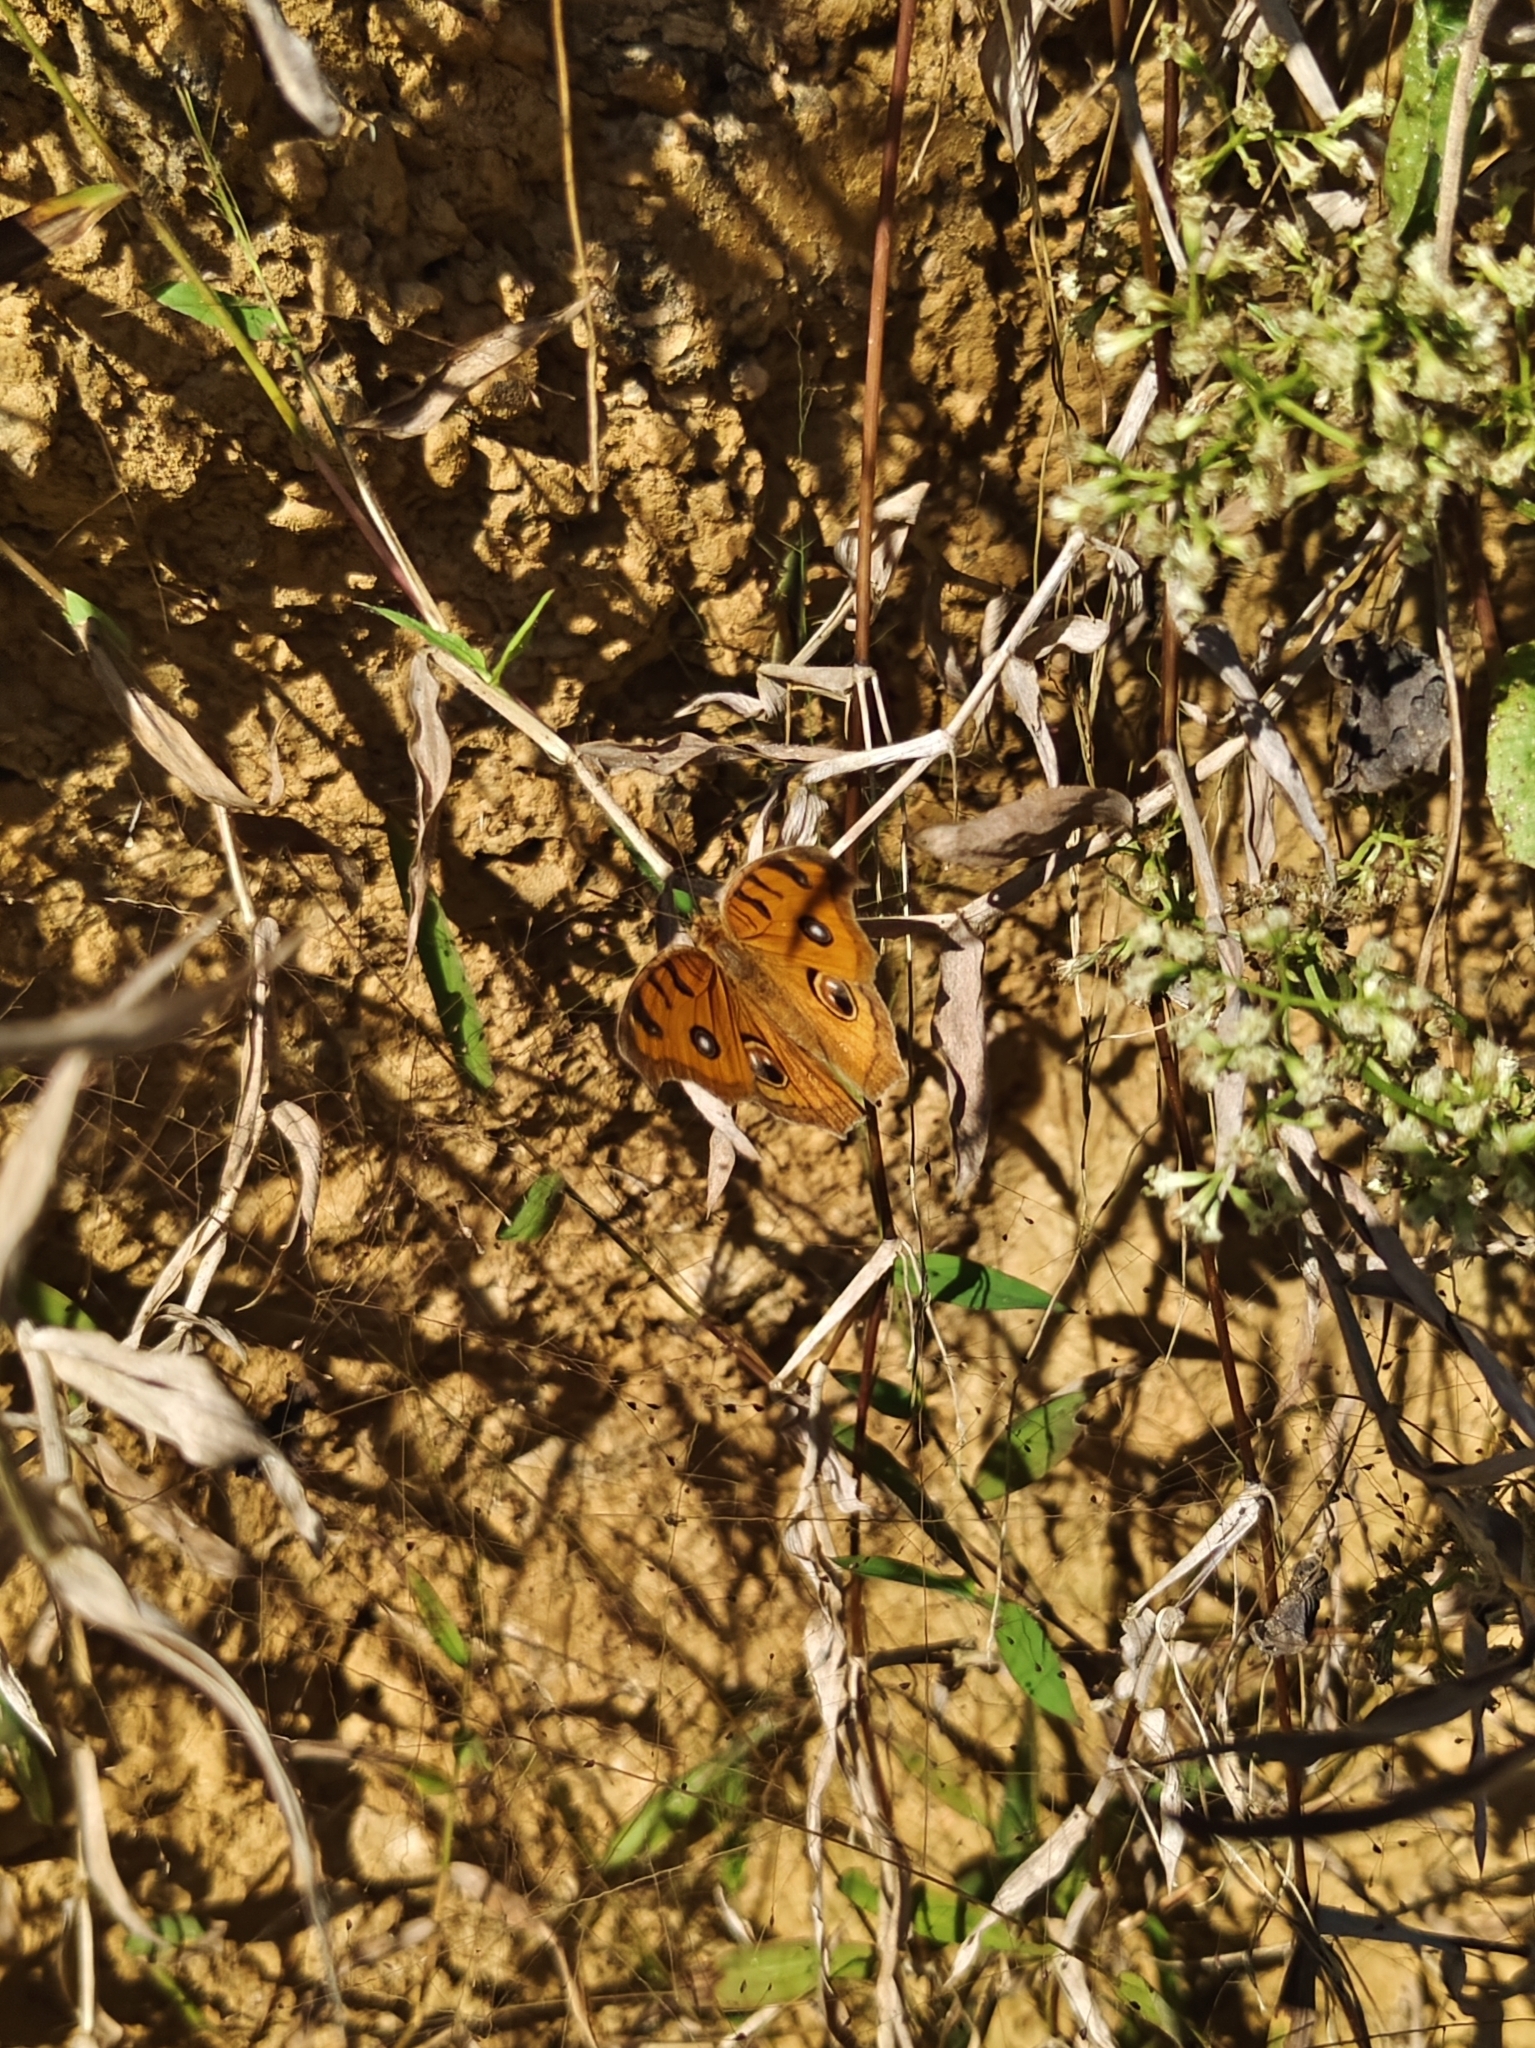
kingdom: Animalia
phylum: Arthropoda
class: Insecta
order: Lepidoptera
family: Nymphalidae
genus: Junonia
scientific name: Junonia almana
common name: Peacock pansy
